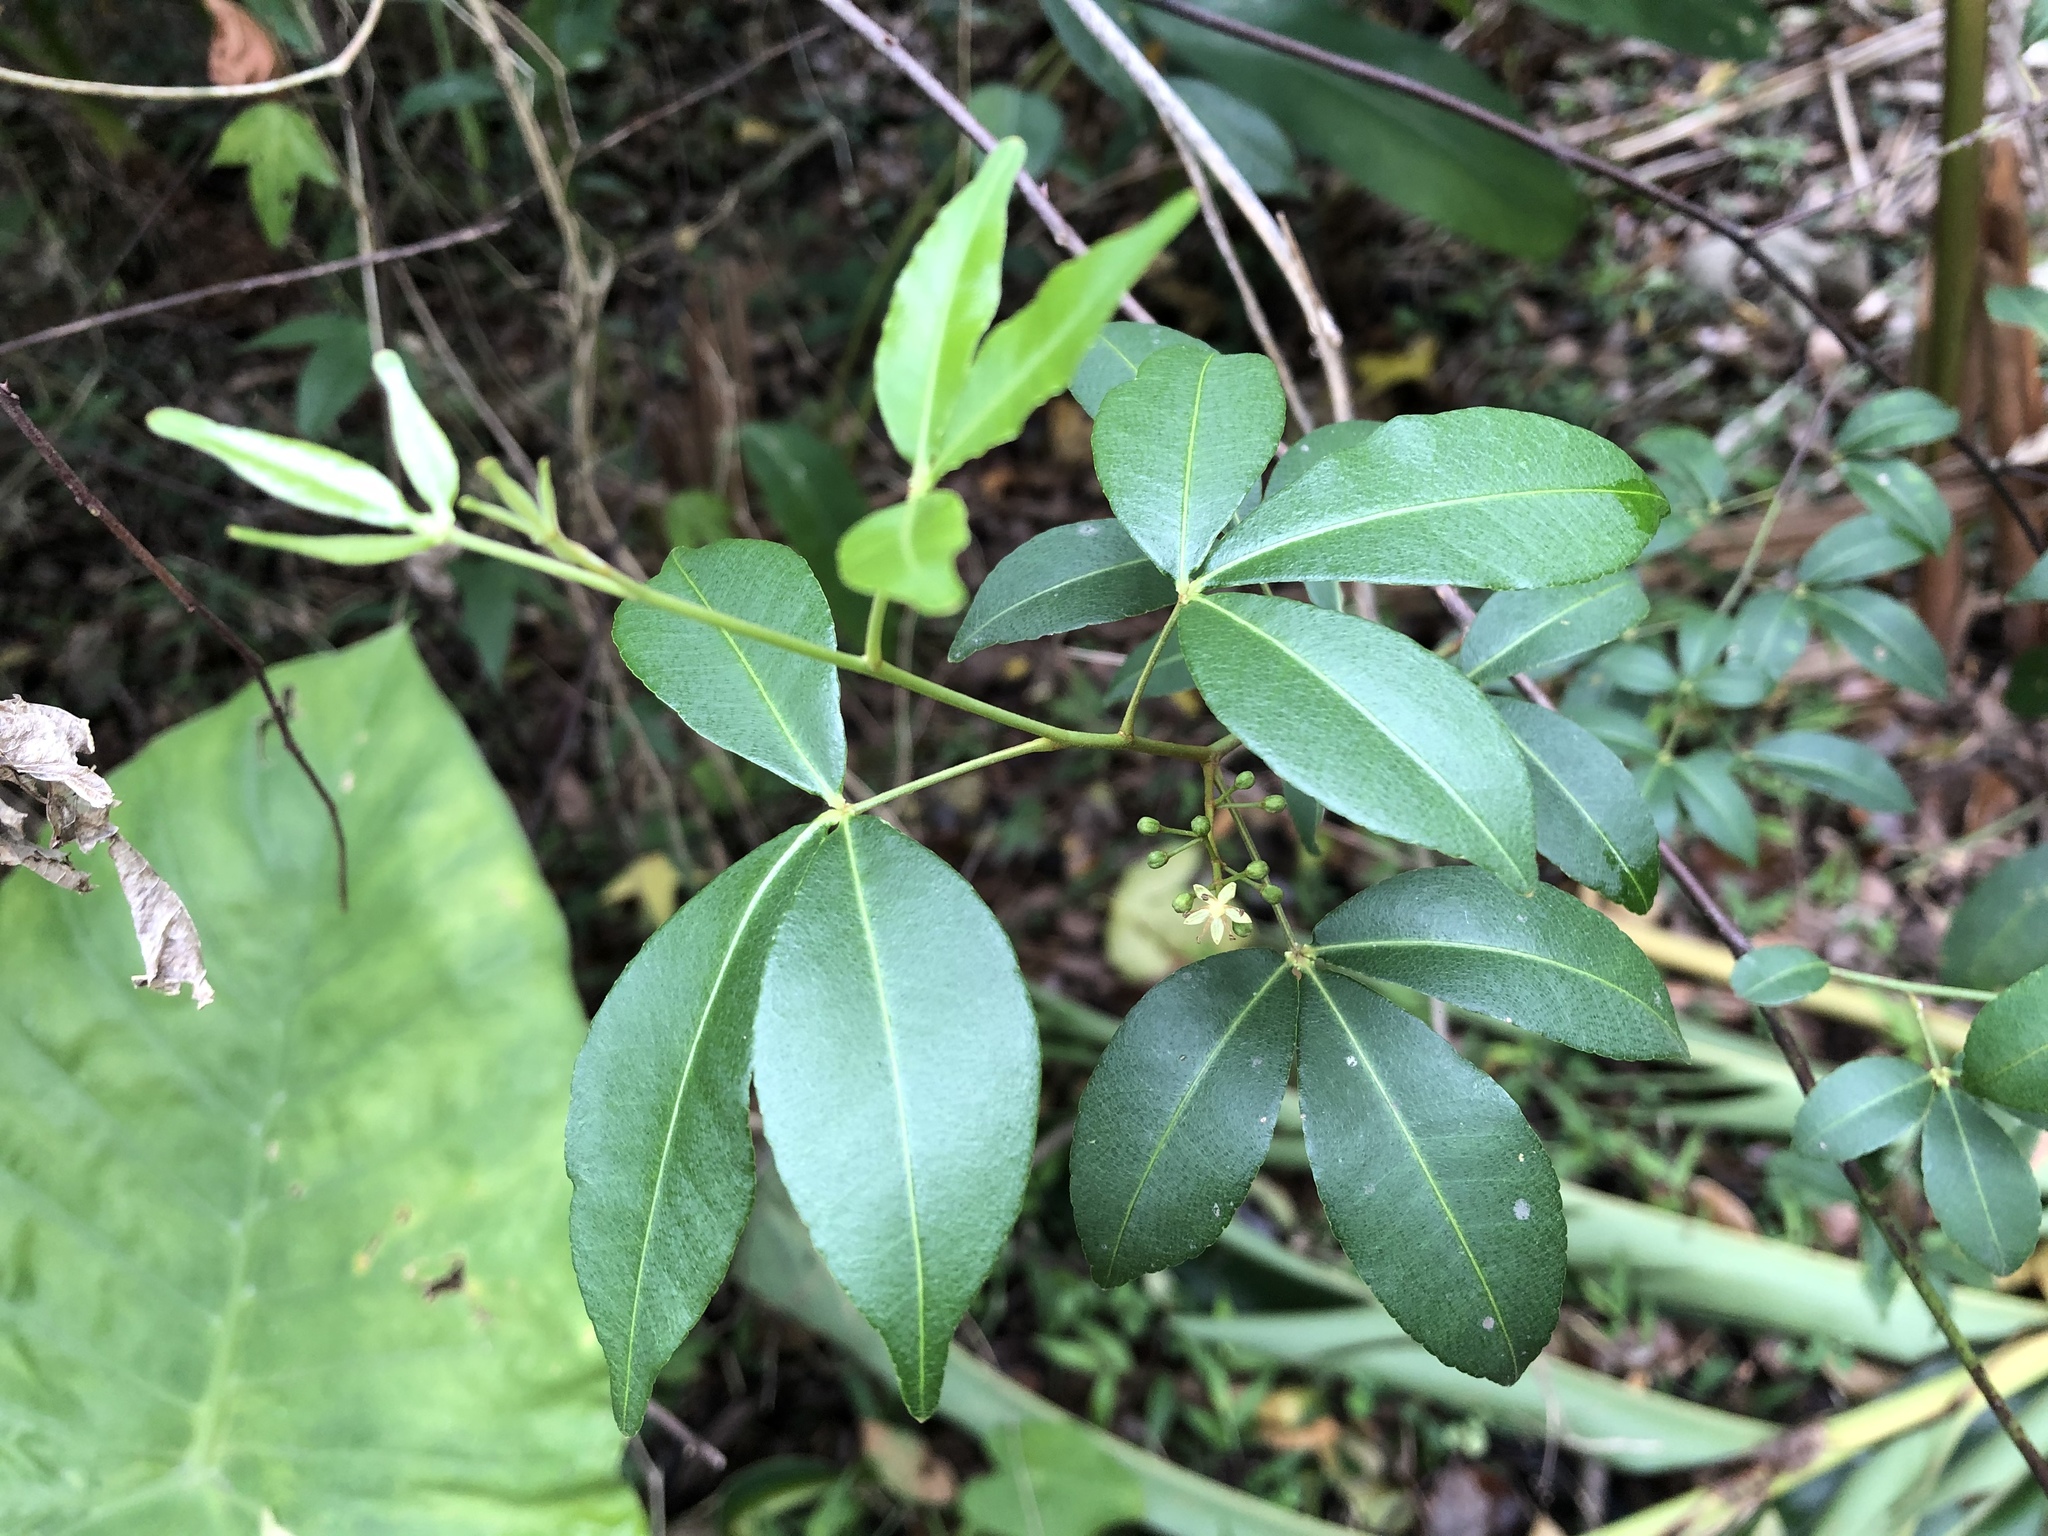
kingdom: Plantae
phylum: Tracheophyta
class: Magnoliopsida
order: Sapindales
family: Rutaceae
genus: Zanthoxylum
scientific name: Zanthoxylum asiaticum
